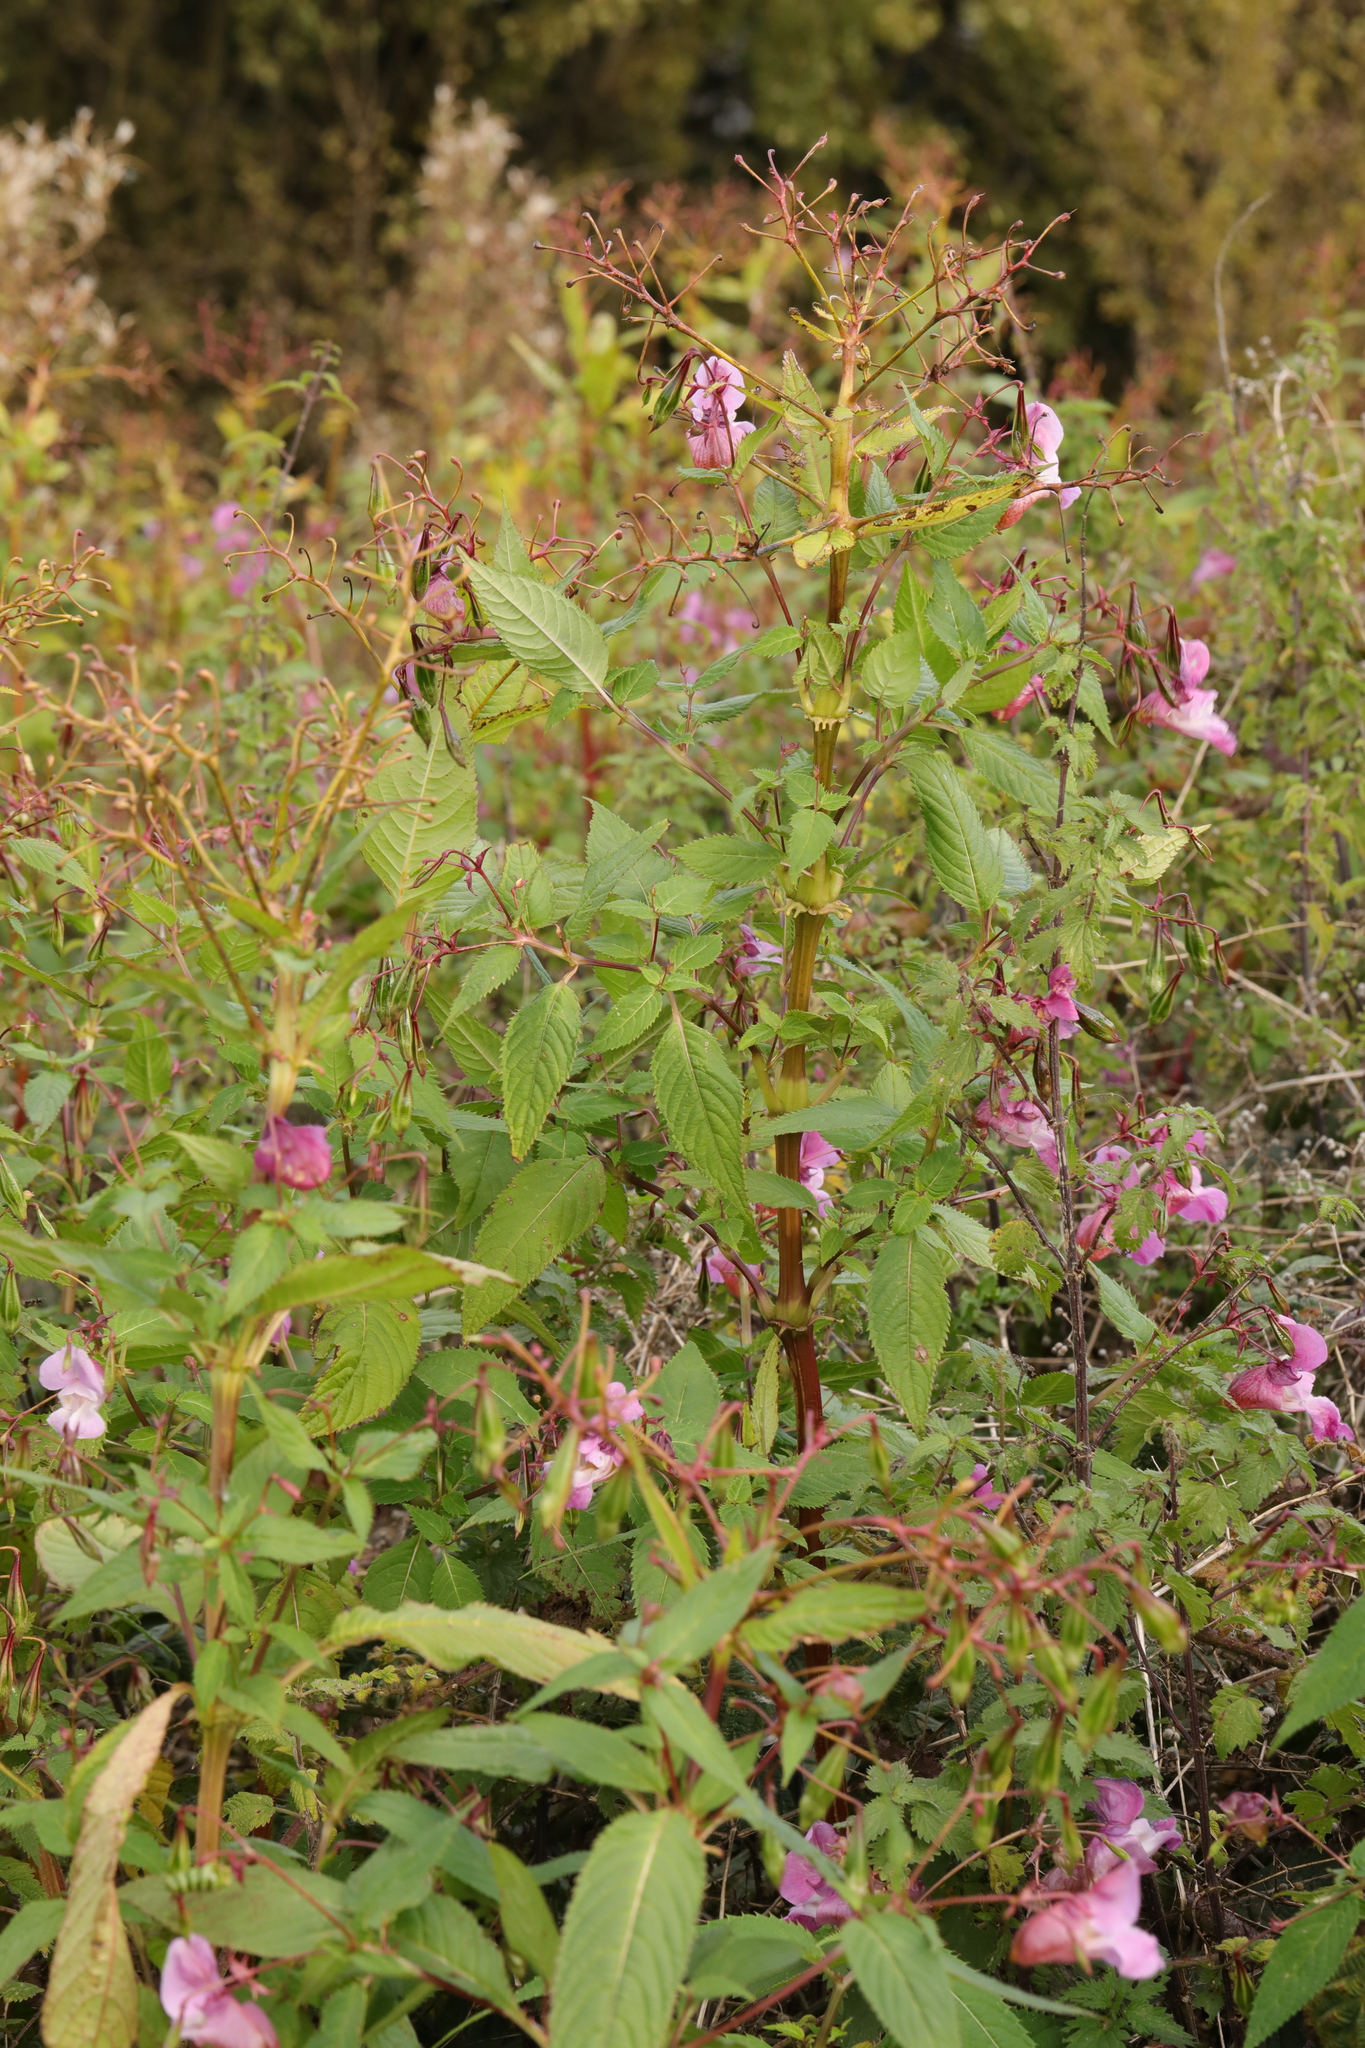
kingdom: Plantae
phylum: Tracheophyta
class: Magnoliopsida
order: Ericales
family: Balsaminaceae
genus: Impatiens
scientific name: Impatiens glandulifera
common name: Himalayan balsam
